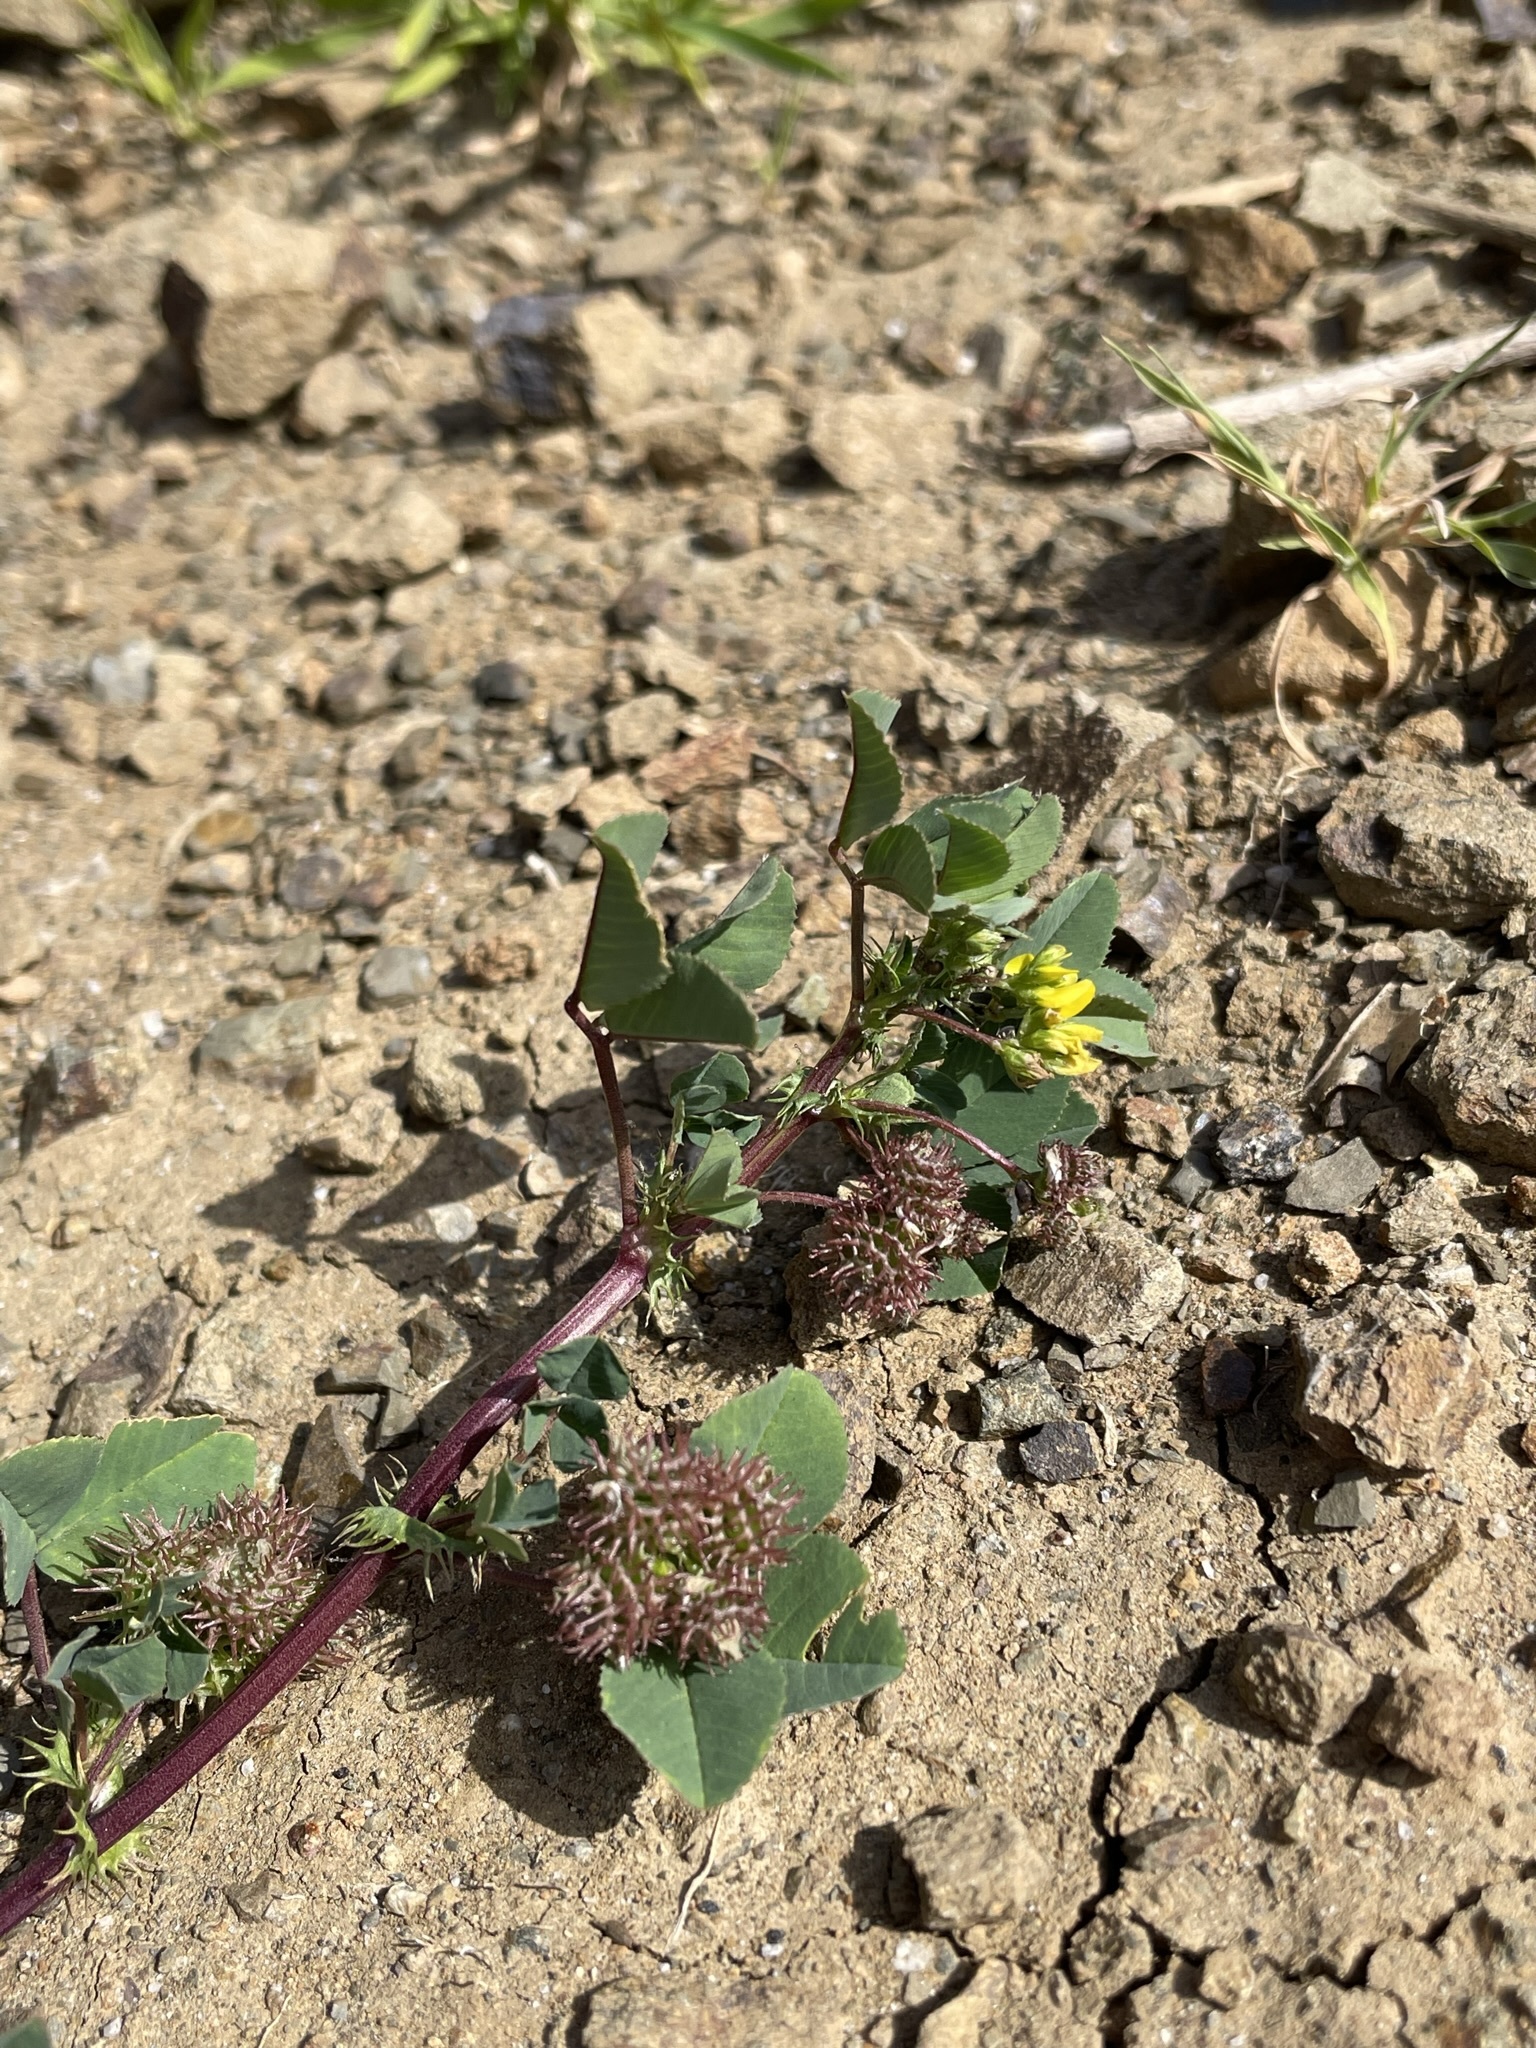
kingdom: Plantae
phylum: Tracheophyta
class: Magnoliopsida
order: Fabales
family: Fabaceae
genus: Medicago
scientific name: Medicago polymorpha
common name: Burclover
